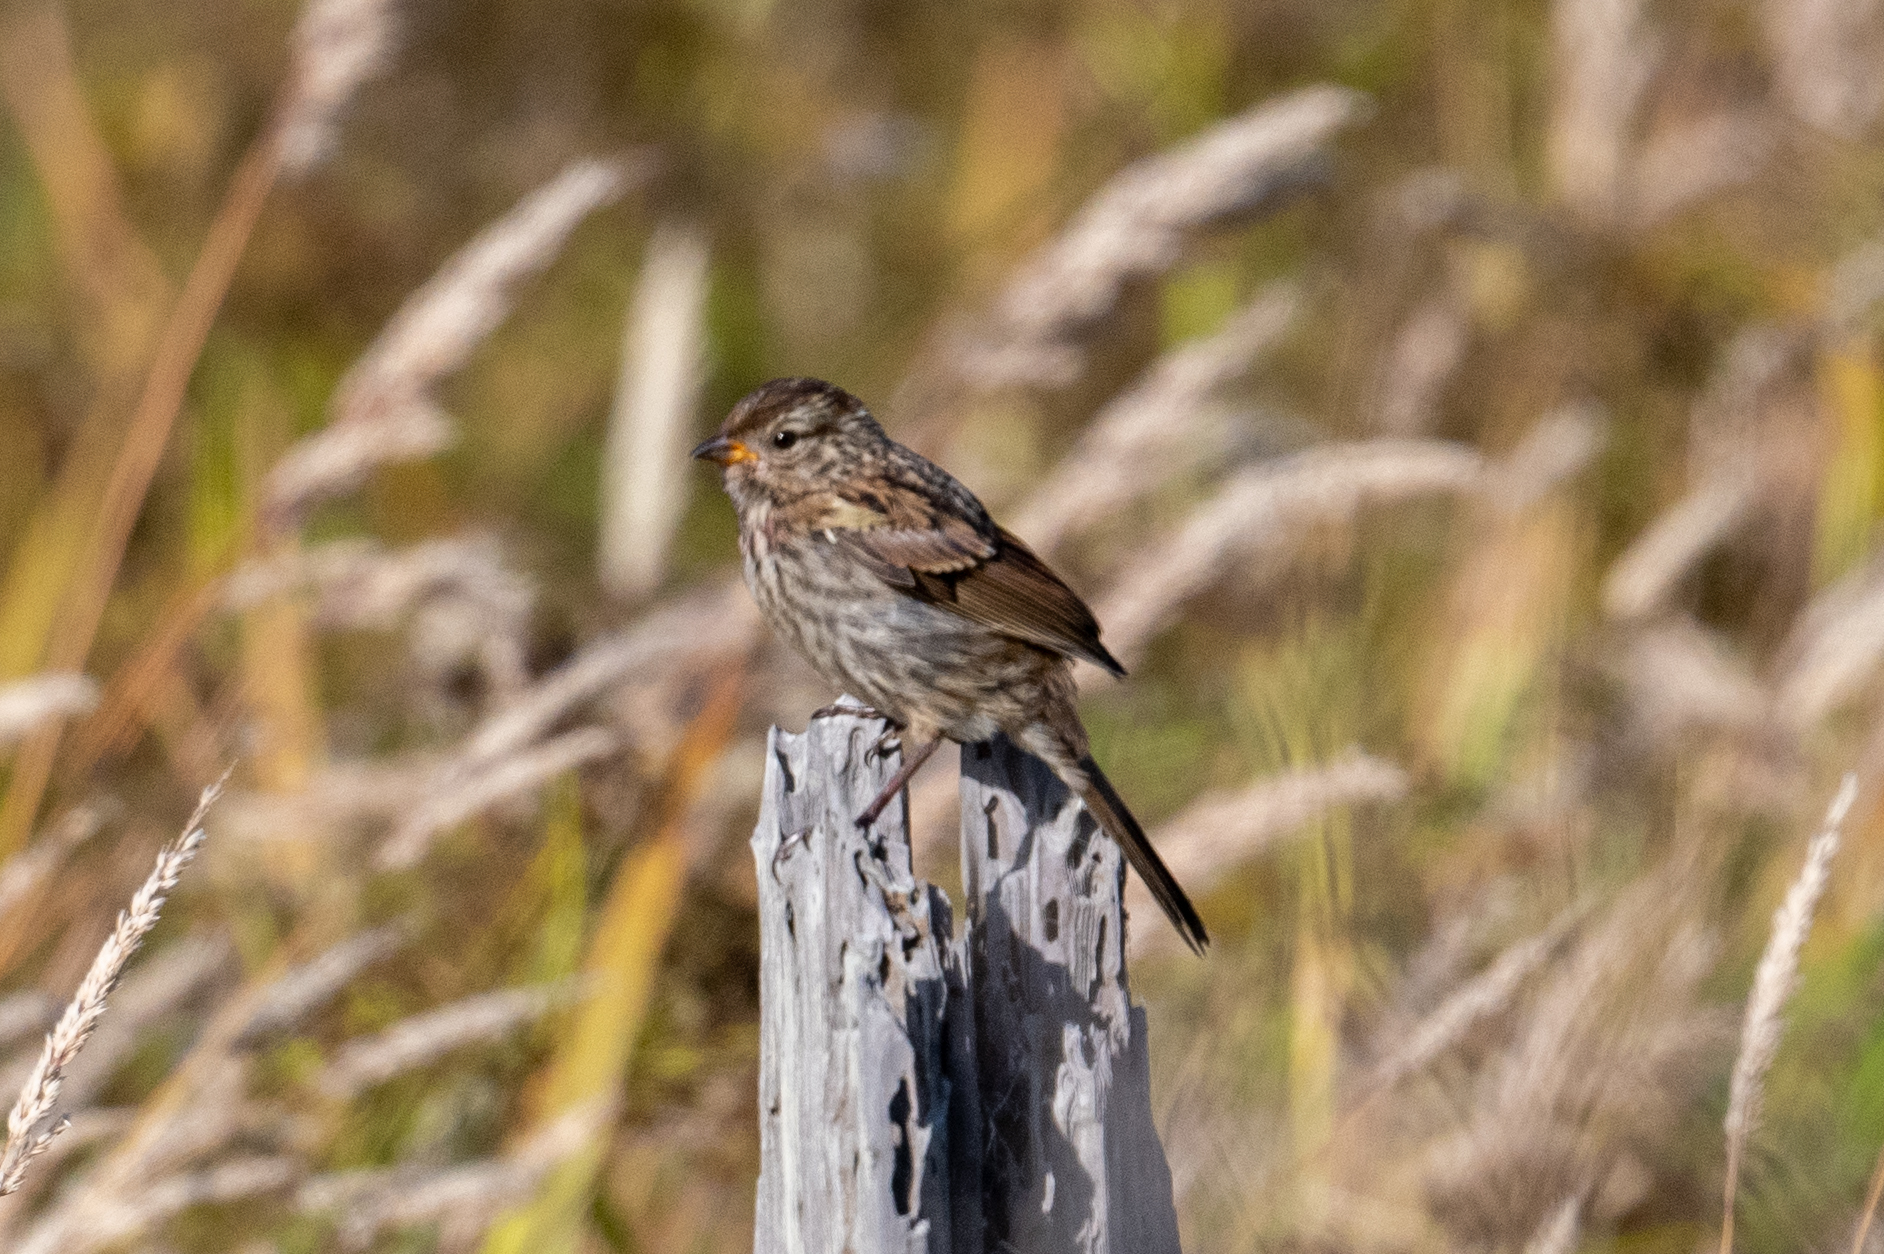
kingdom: Animalia
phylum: Chordata
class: Aves
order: Passeriformes
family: Passerellidae
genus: Zonotrichia
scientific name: Zonotrichia leucophrys
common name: White-crowned sparrow
